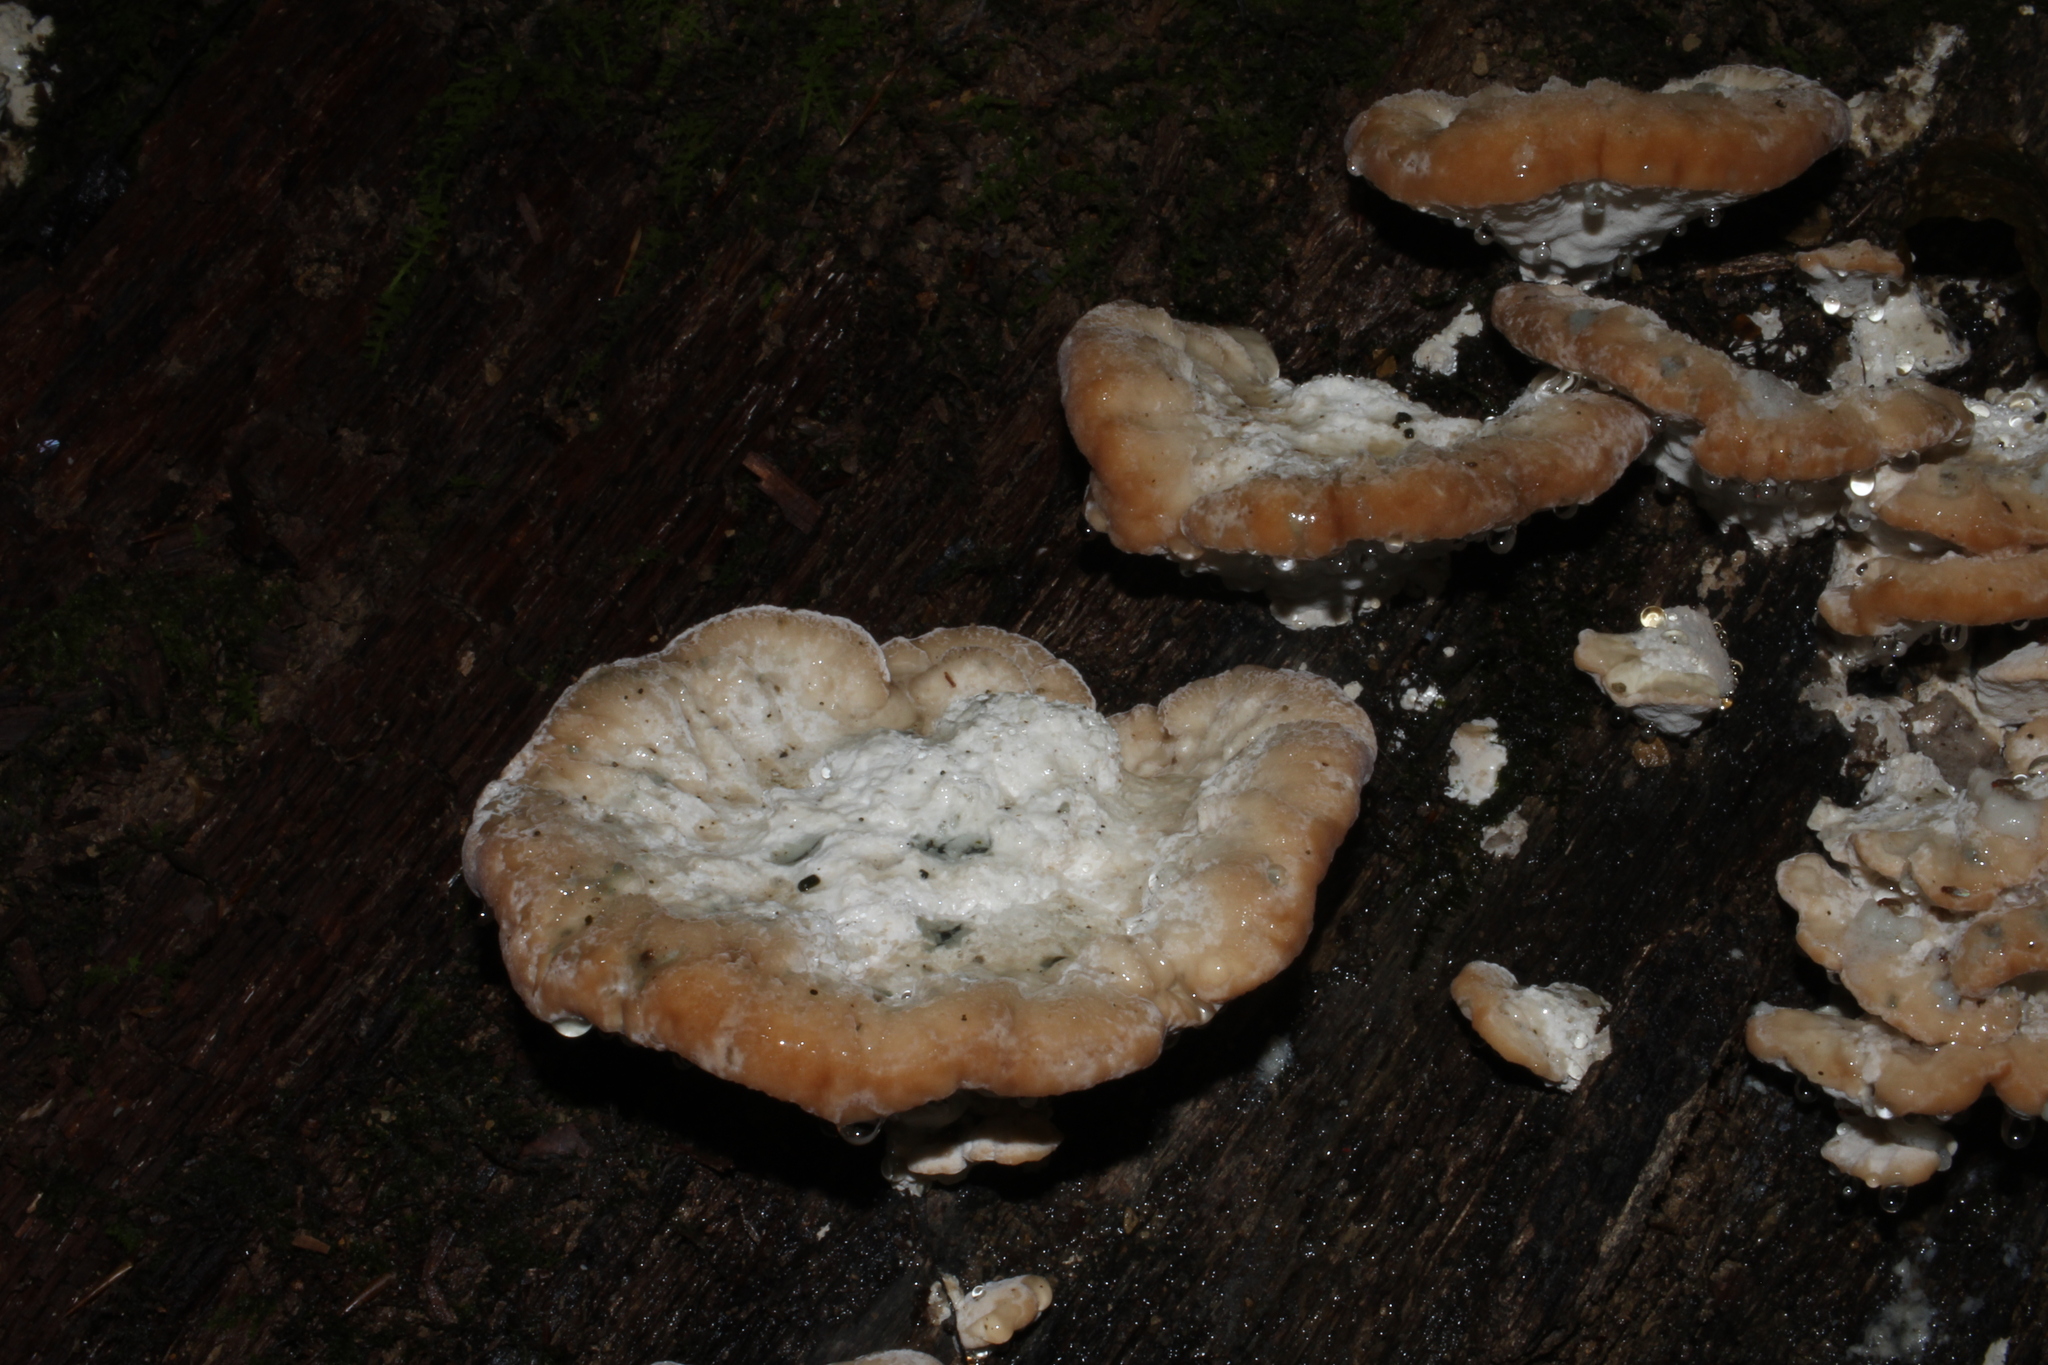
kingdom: Fungi
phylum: Basidiomycota
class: Agaricomycetes
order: Polyporales
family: Fomitopsidaceae
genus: Niveoporofomes
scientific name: Niveoporofomes spraguei
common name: Green cheese polypore
